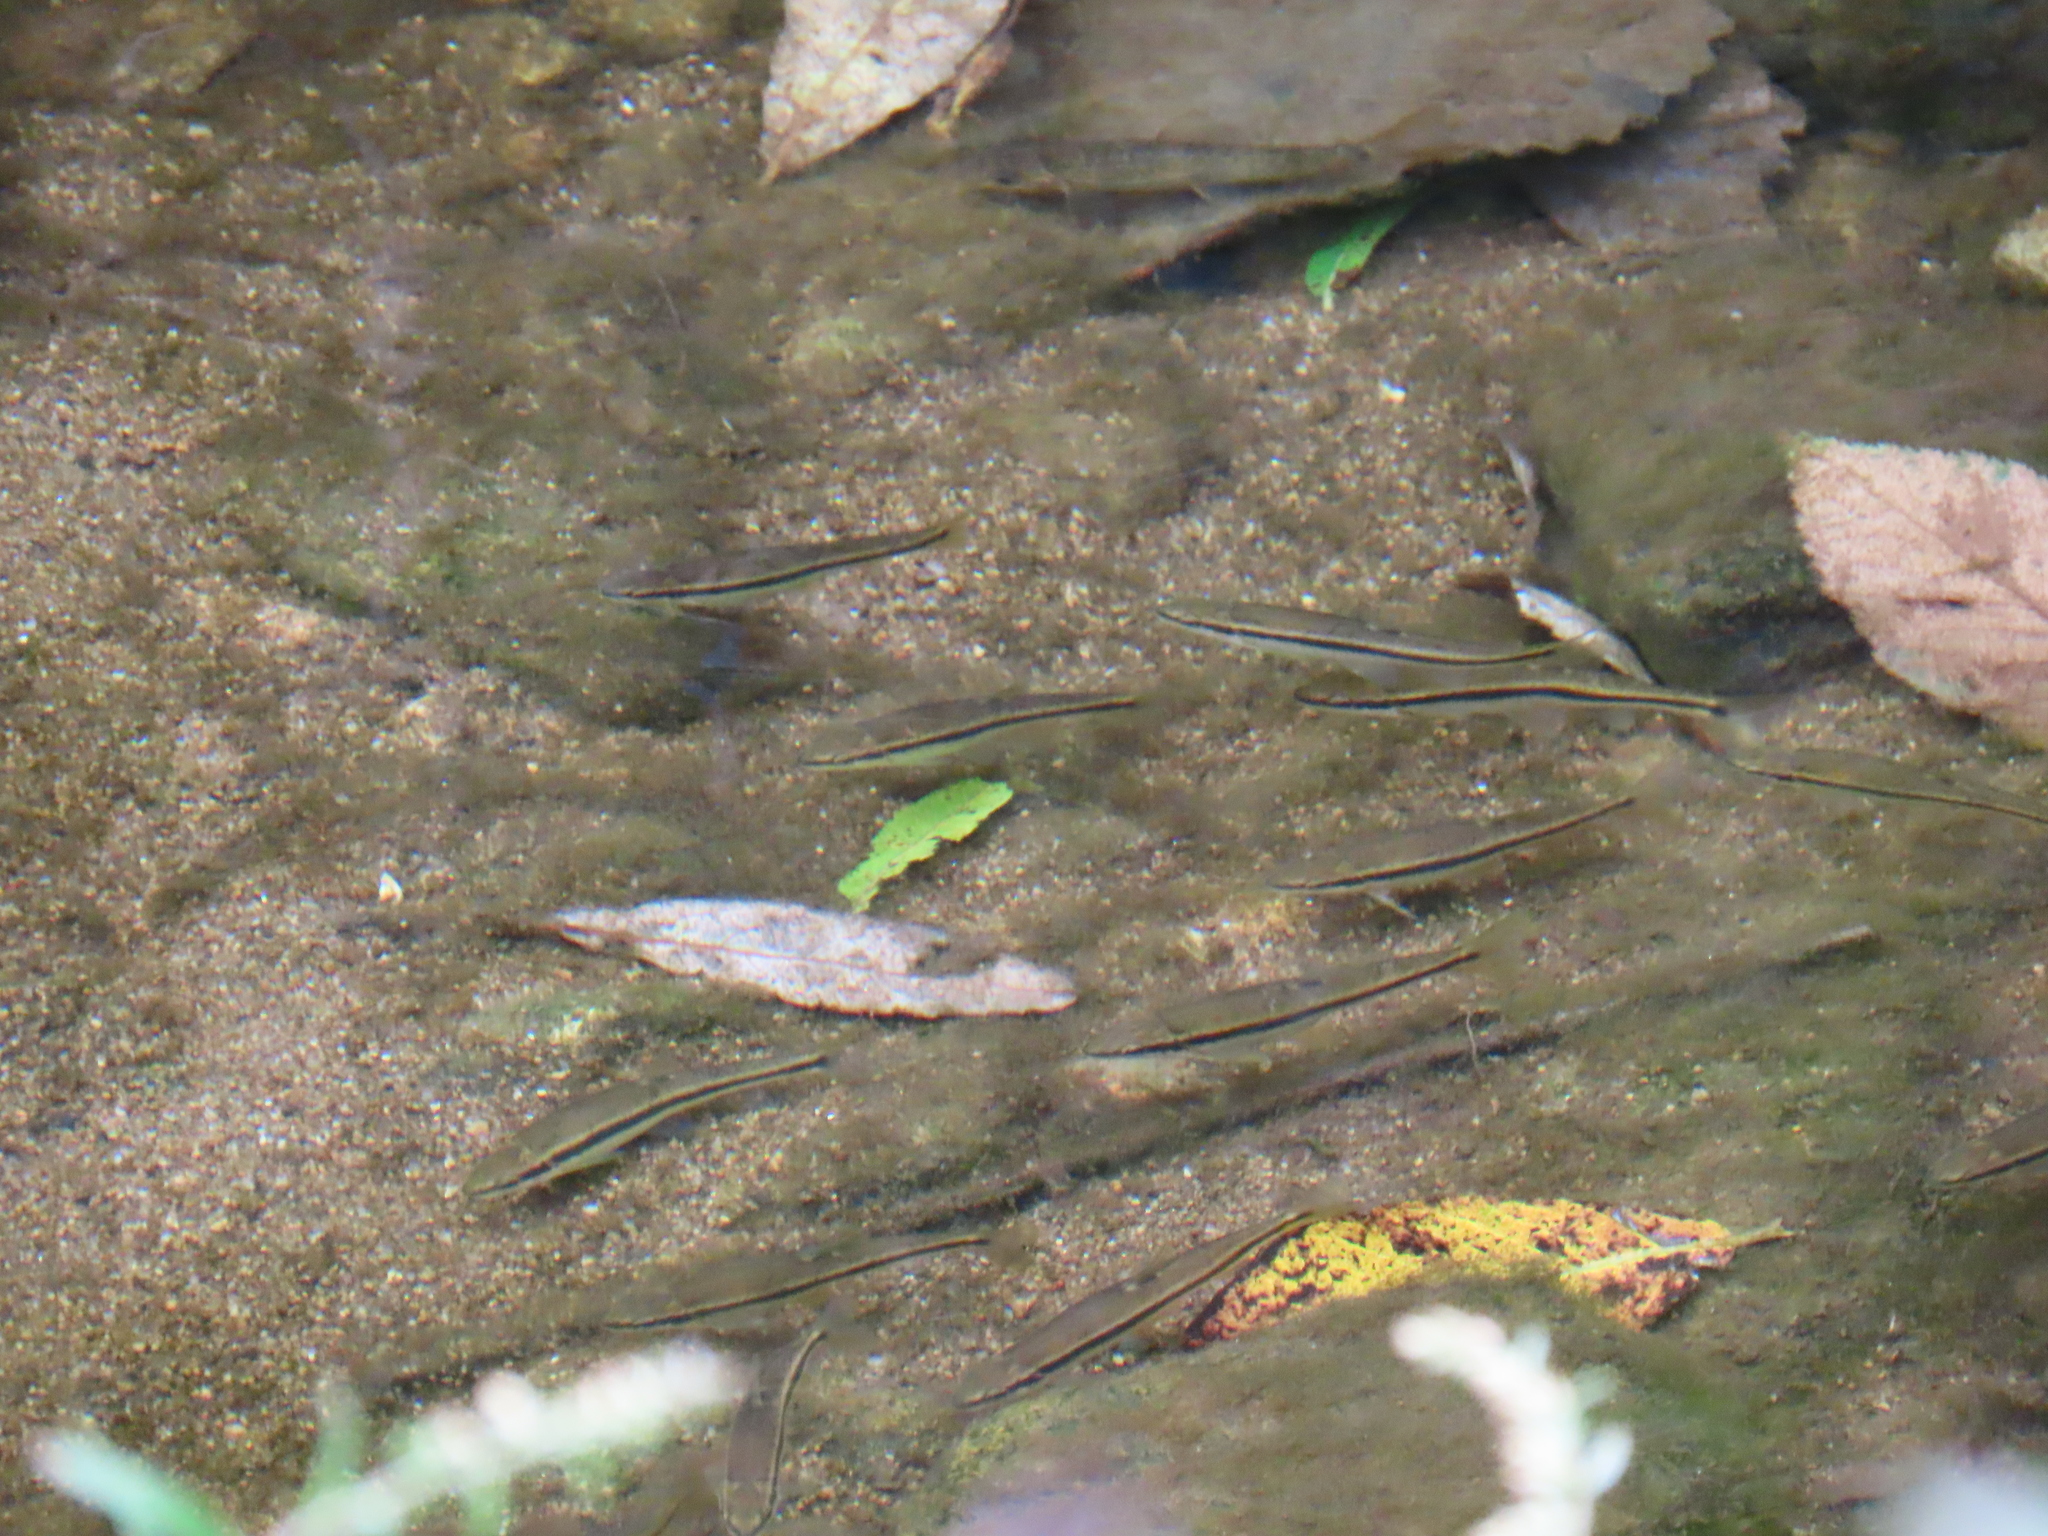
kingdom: Animalia
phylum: Chordata
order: Cypriniformes
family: Cyprinidae
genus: Rhinichthys
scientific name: Rhinichthys atratulus
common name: Eastern blacknose dace
